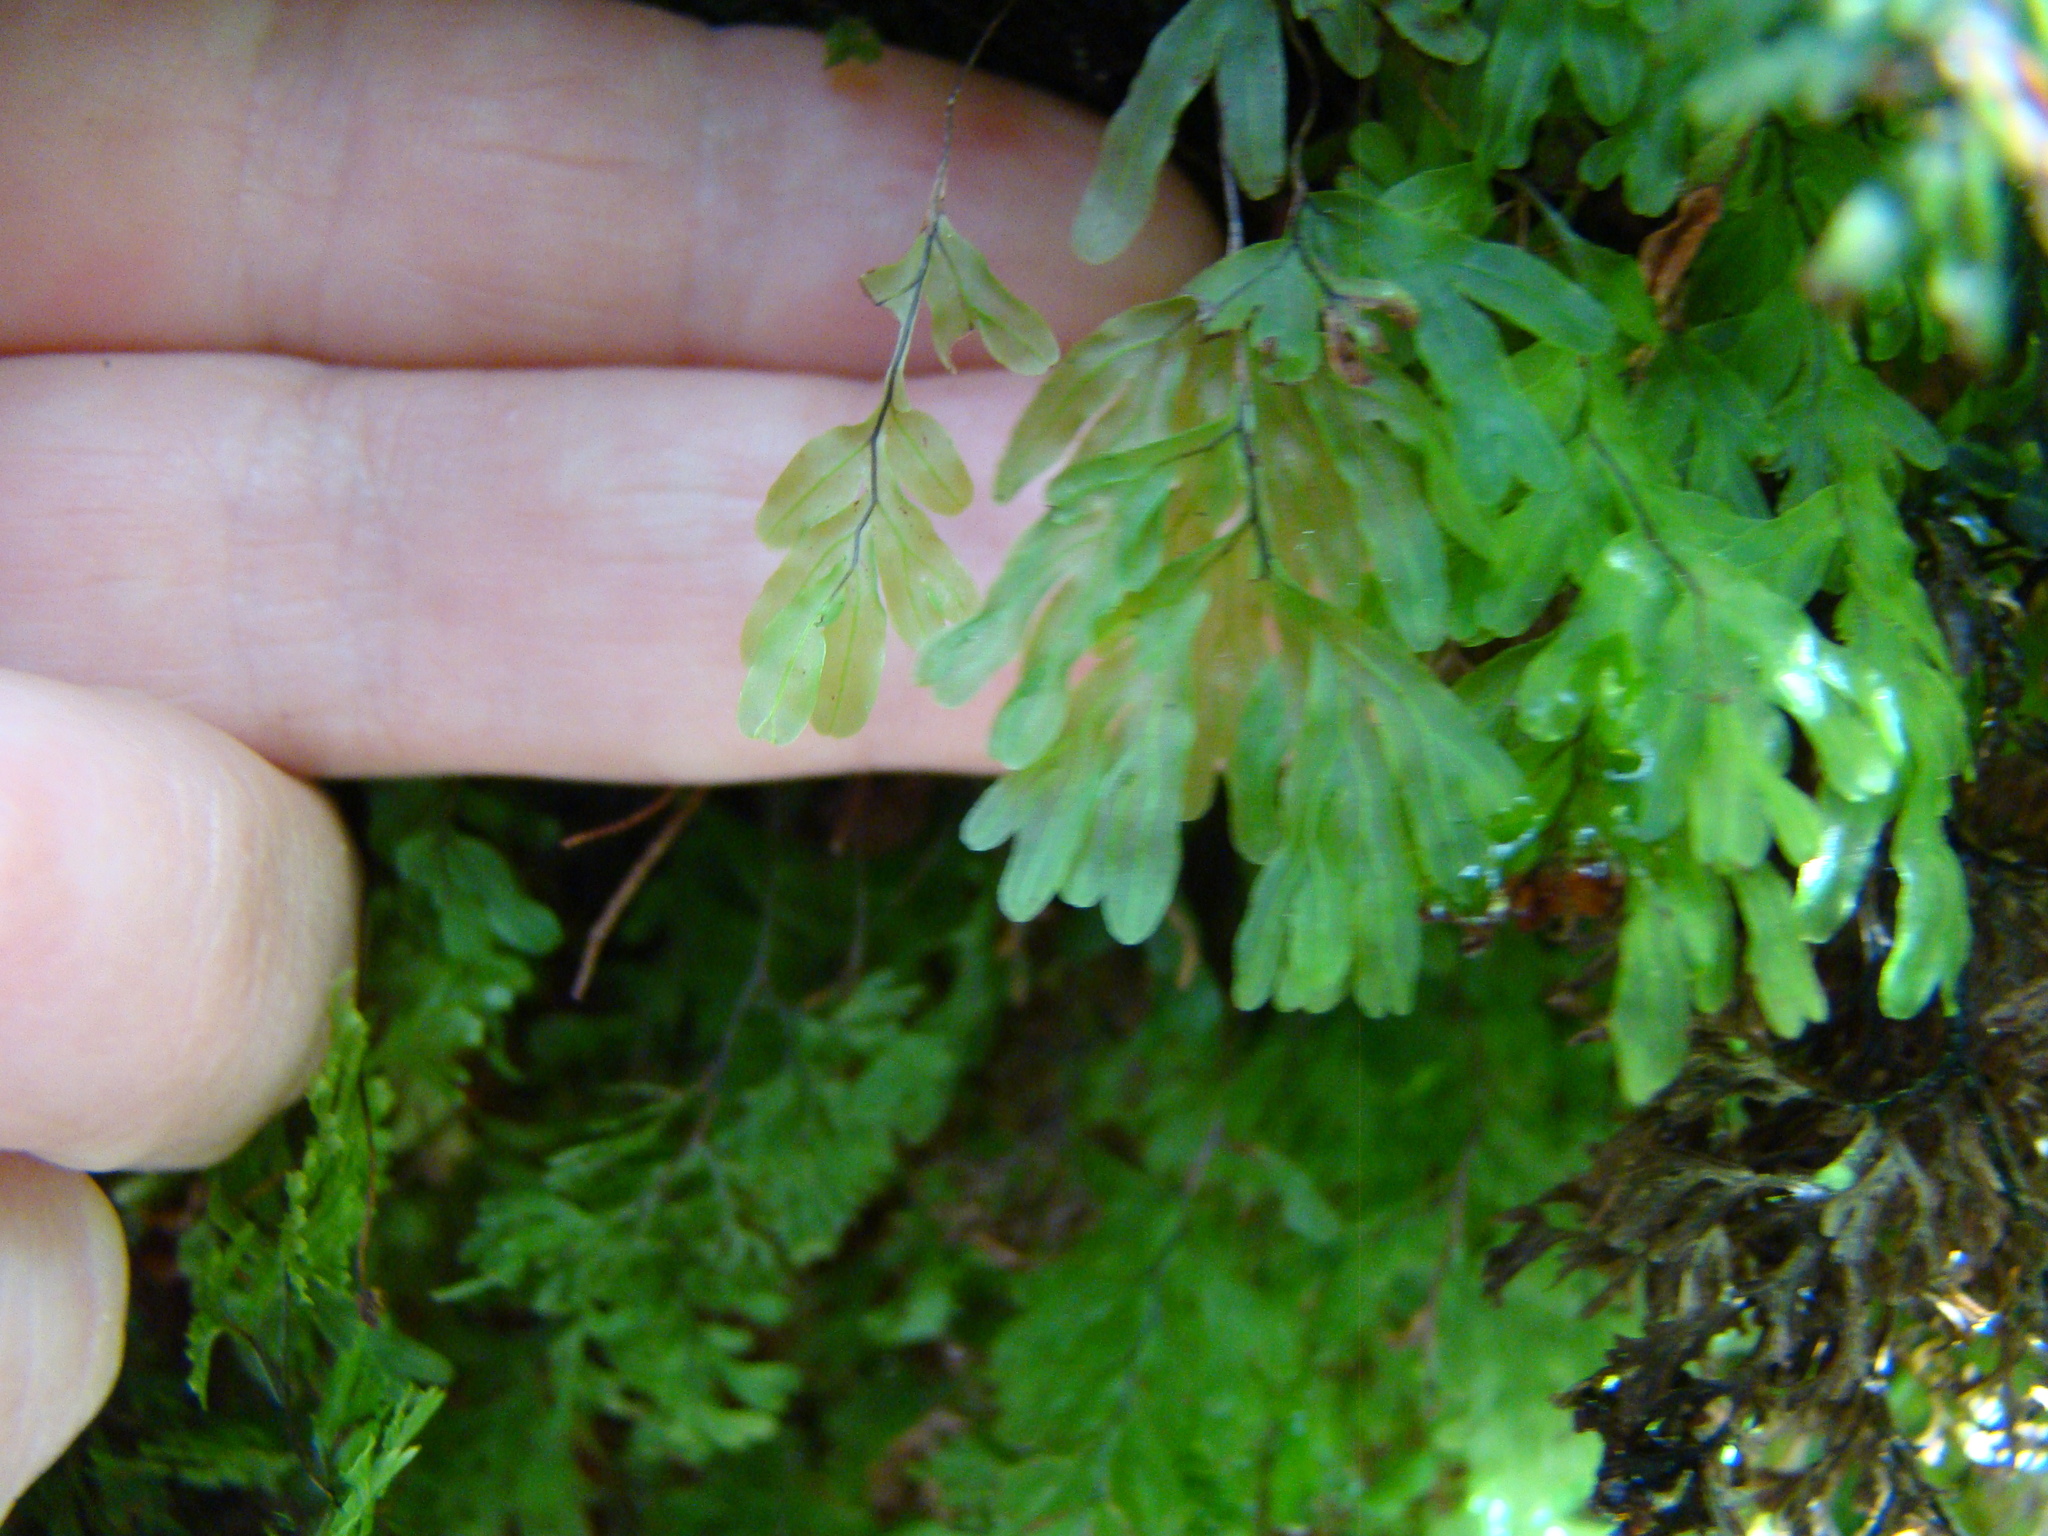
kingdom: Plantae
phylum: Tracheophyta
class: Polypodiopsida
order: Hymenophyllales
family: Hymenophyllaceae
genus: Hymenophyllum
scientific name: Hymenophyllum villosum
